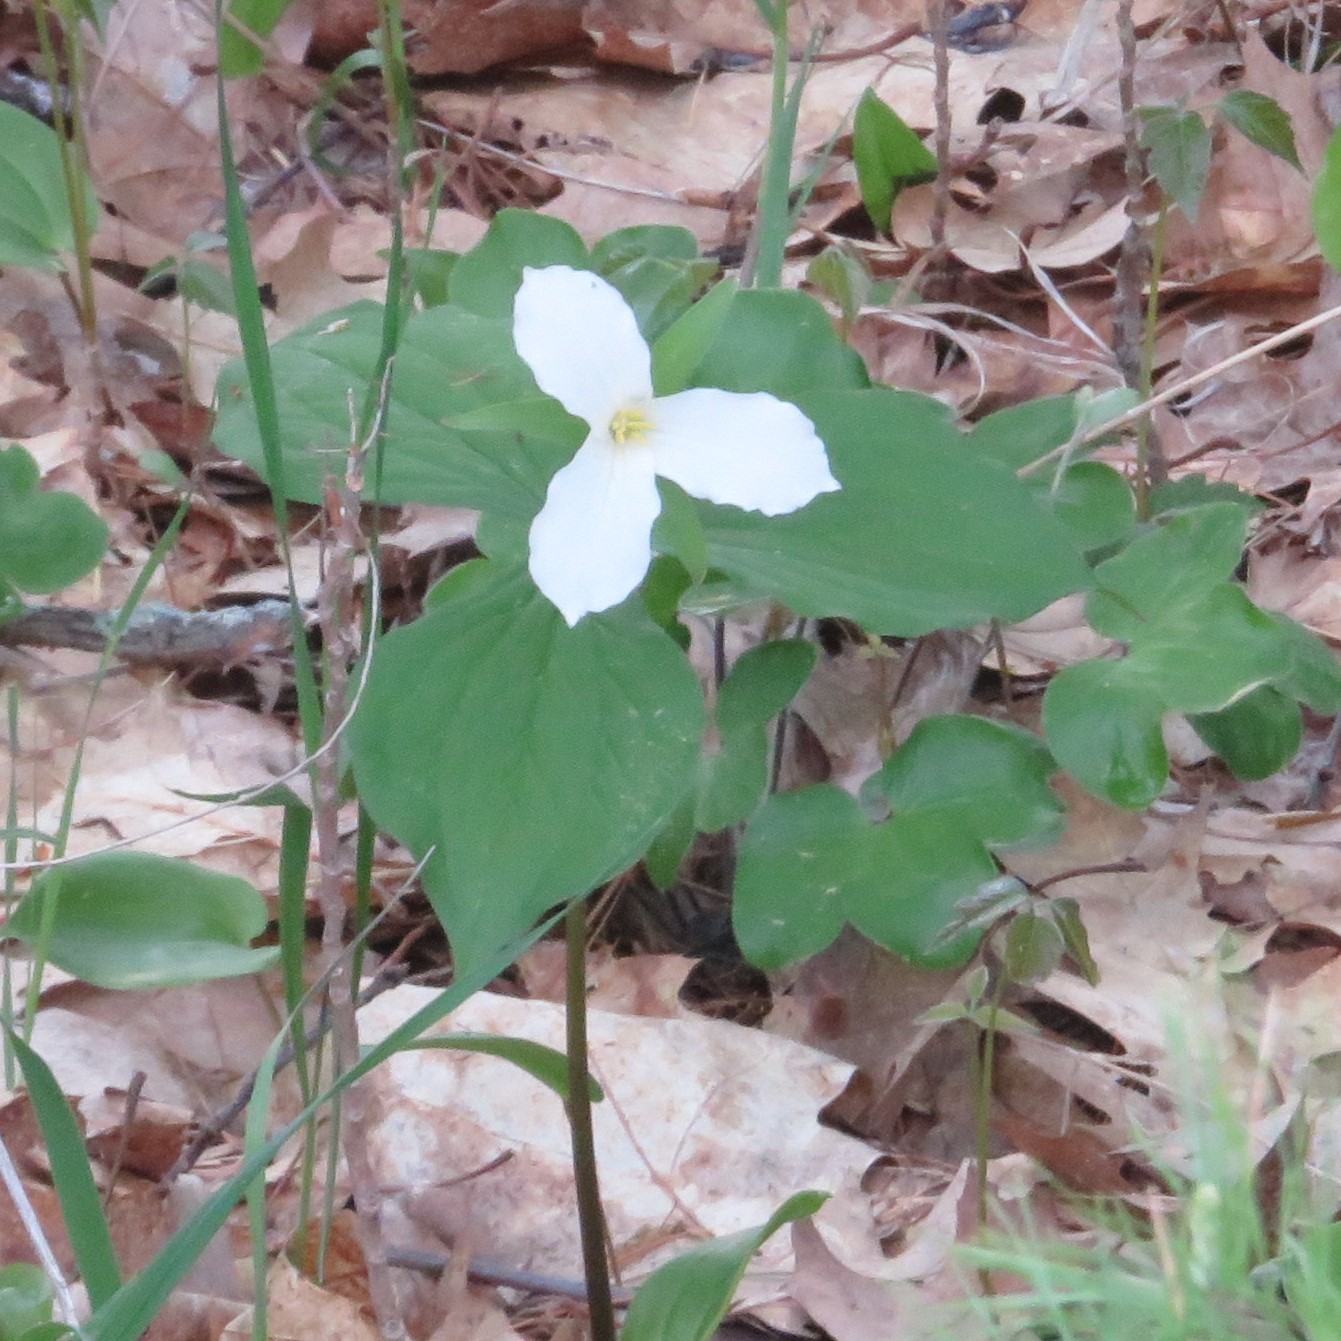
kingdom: Plantae
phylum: Tracheophyta
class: Liliopsida
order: Liliales
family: Melanthiaceae
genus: Trillium
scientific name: Trillium grandiflorum
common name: Great white trillium
